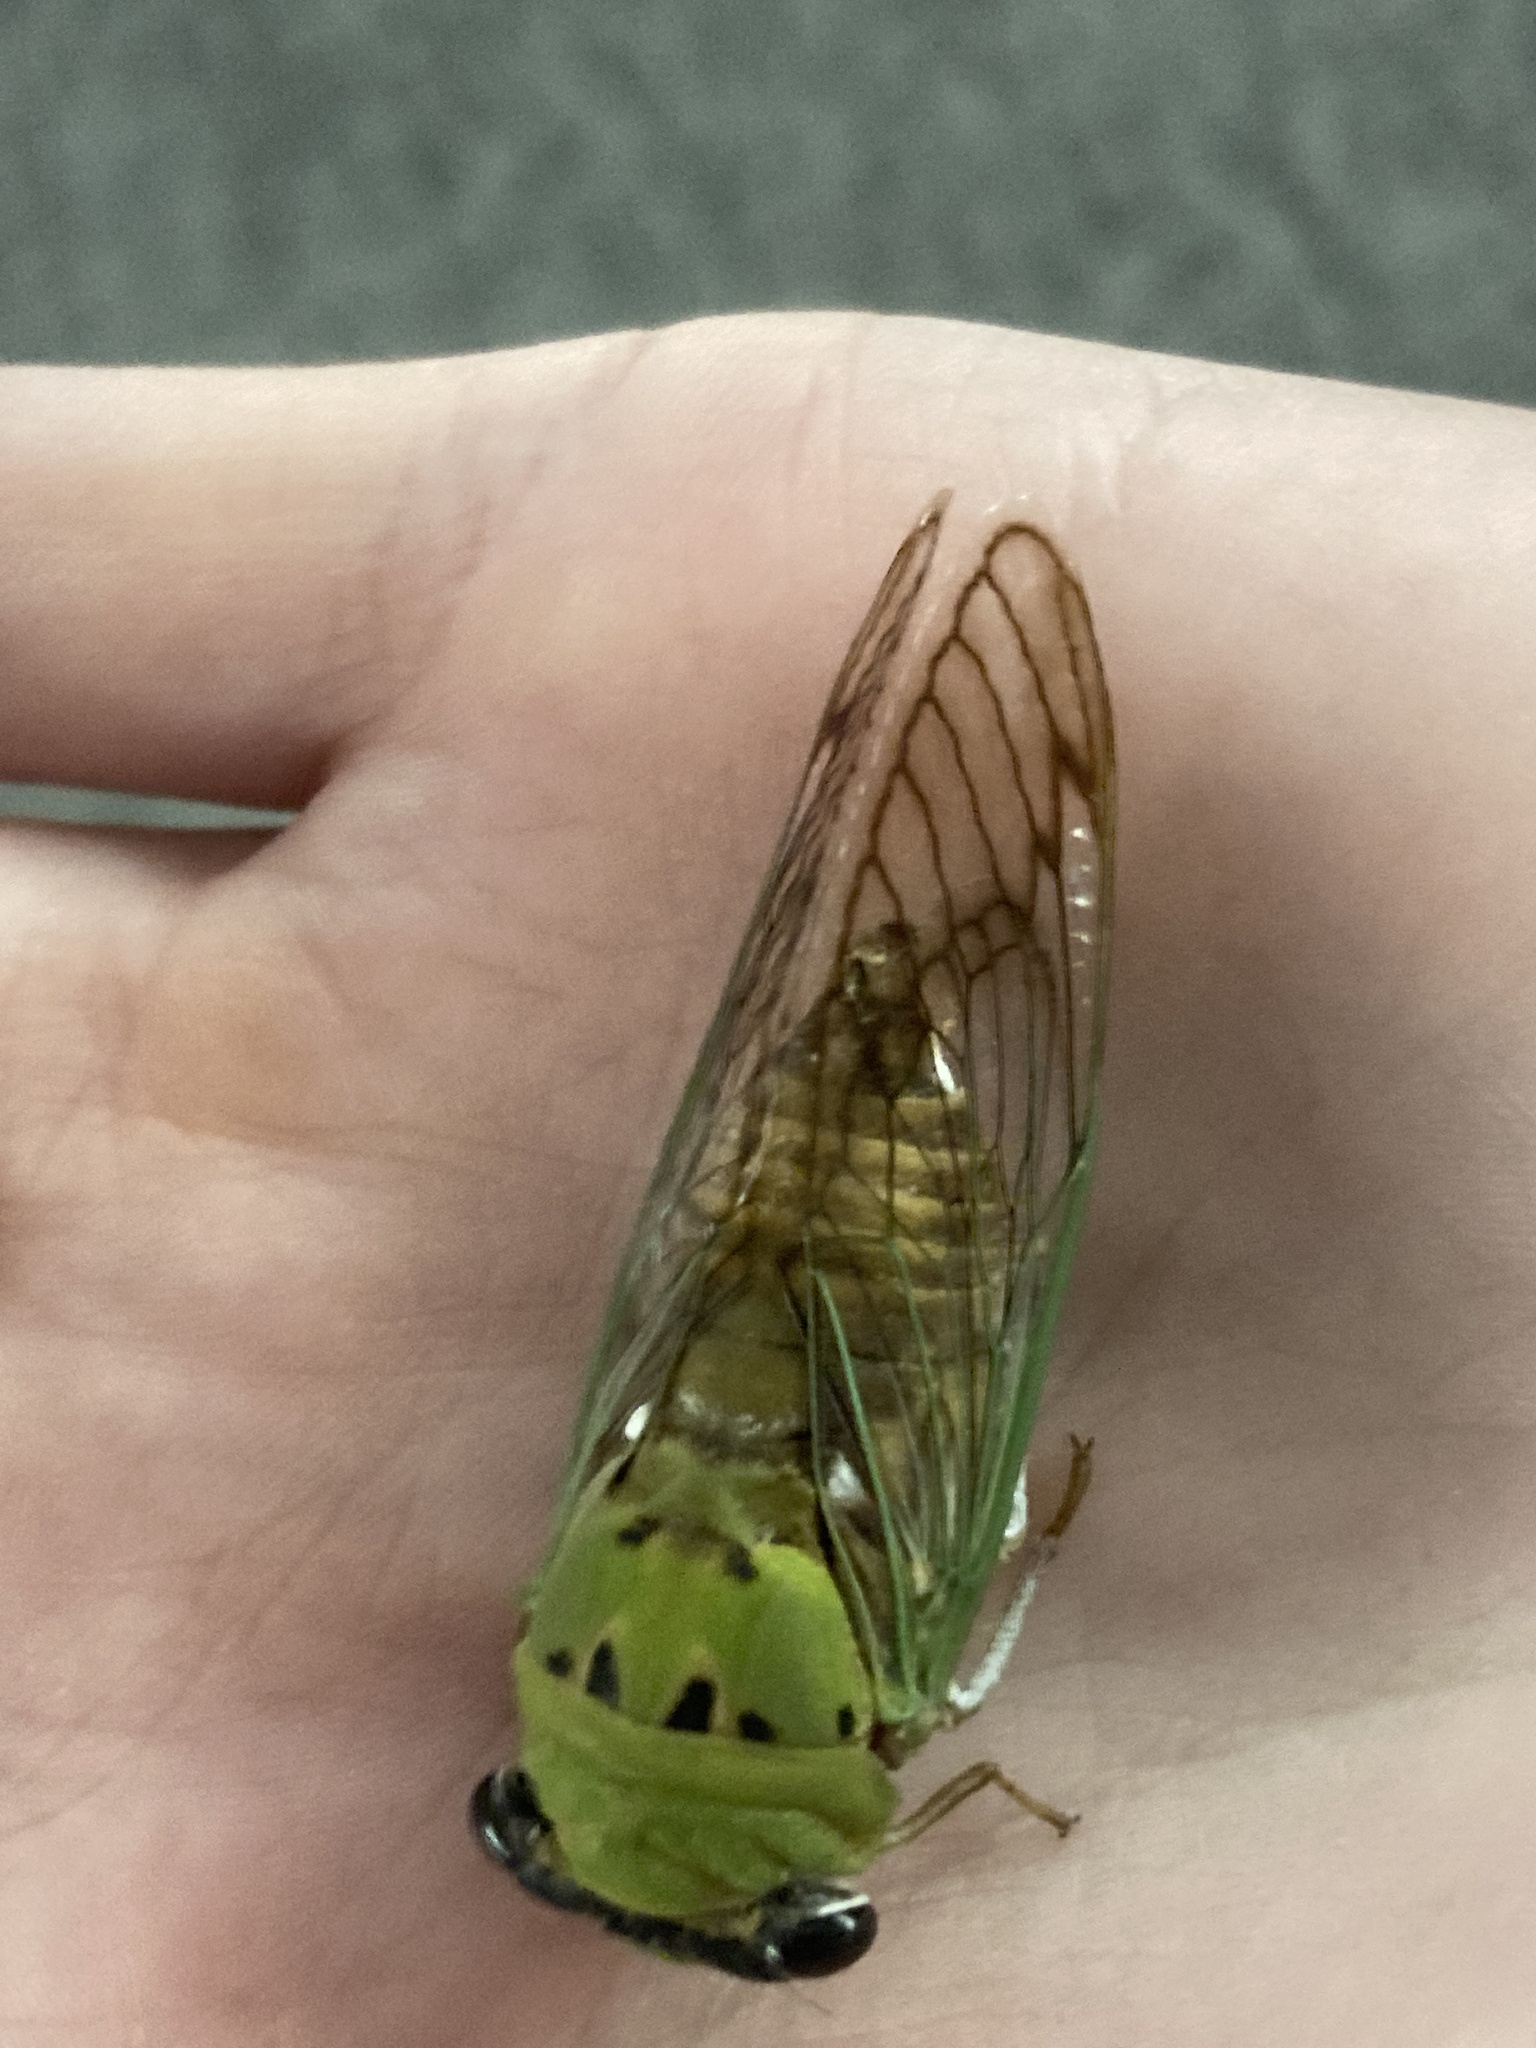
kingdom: Animalia
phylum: Arthropoda
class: Insecta
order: Hemiptera
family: Cicadidae
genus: Neotibicen
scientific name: Neotibicen superbus
